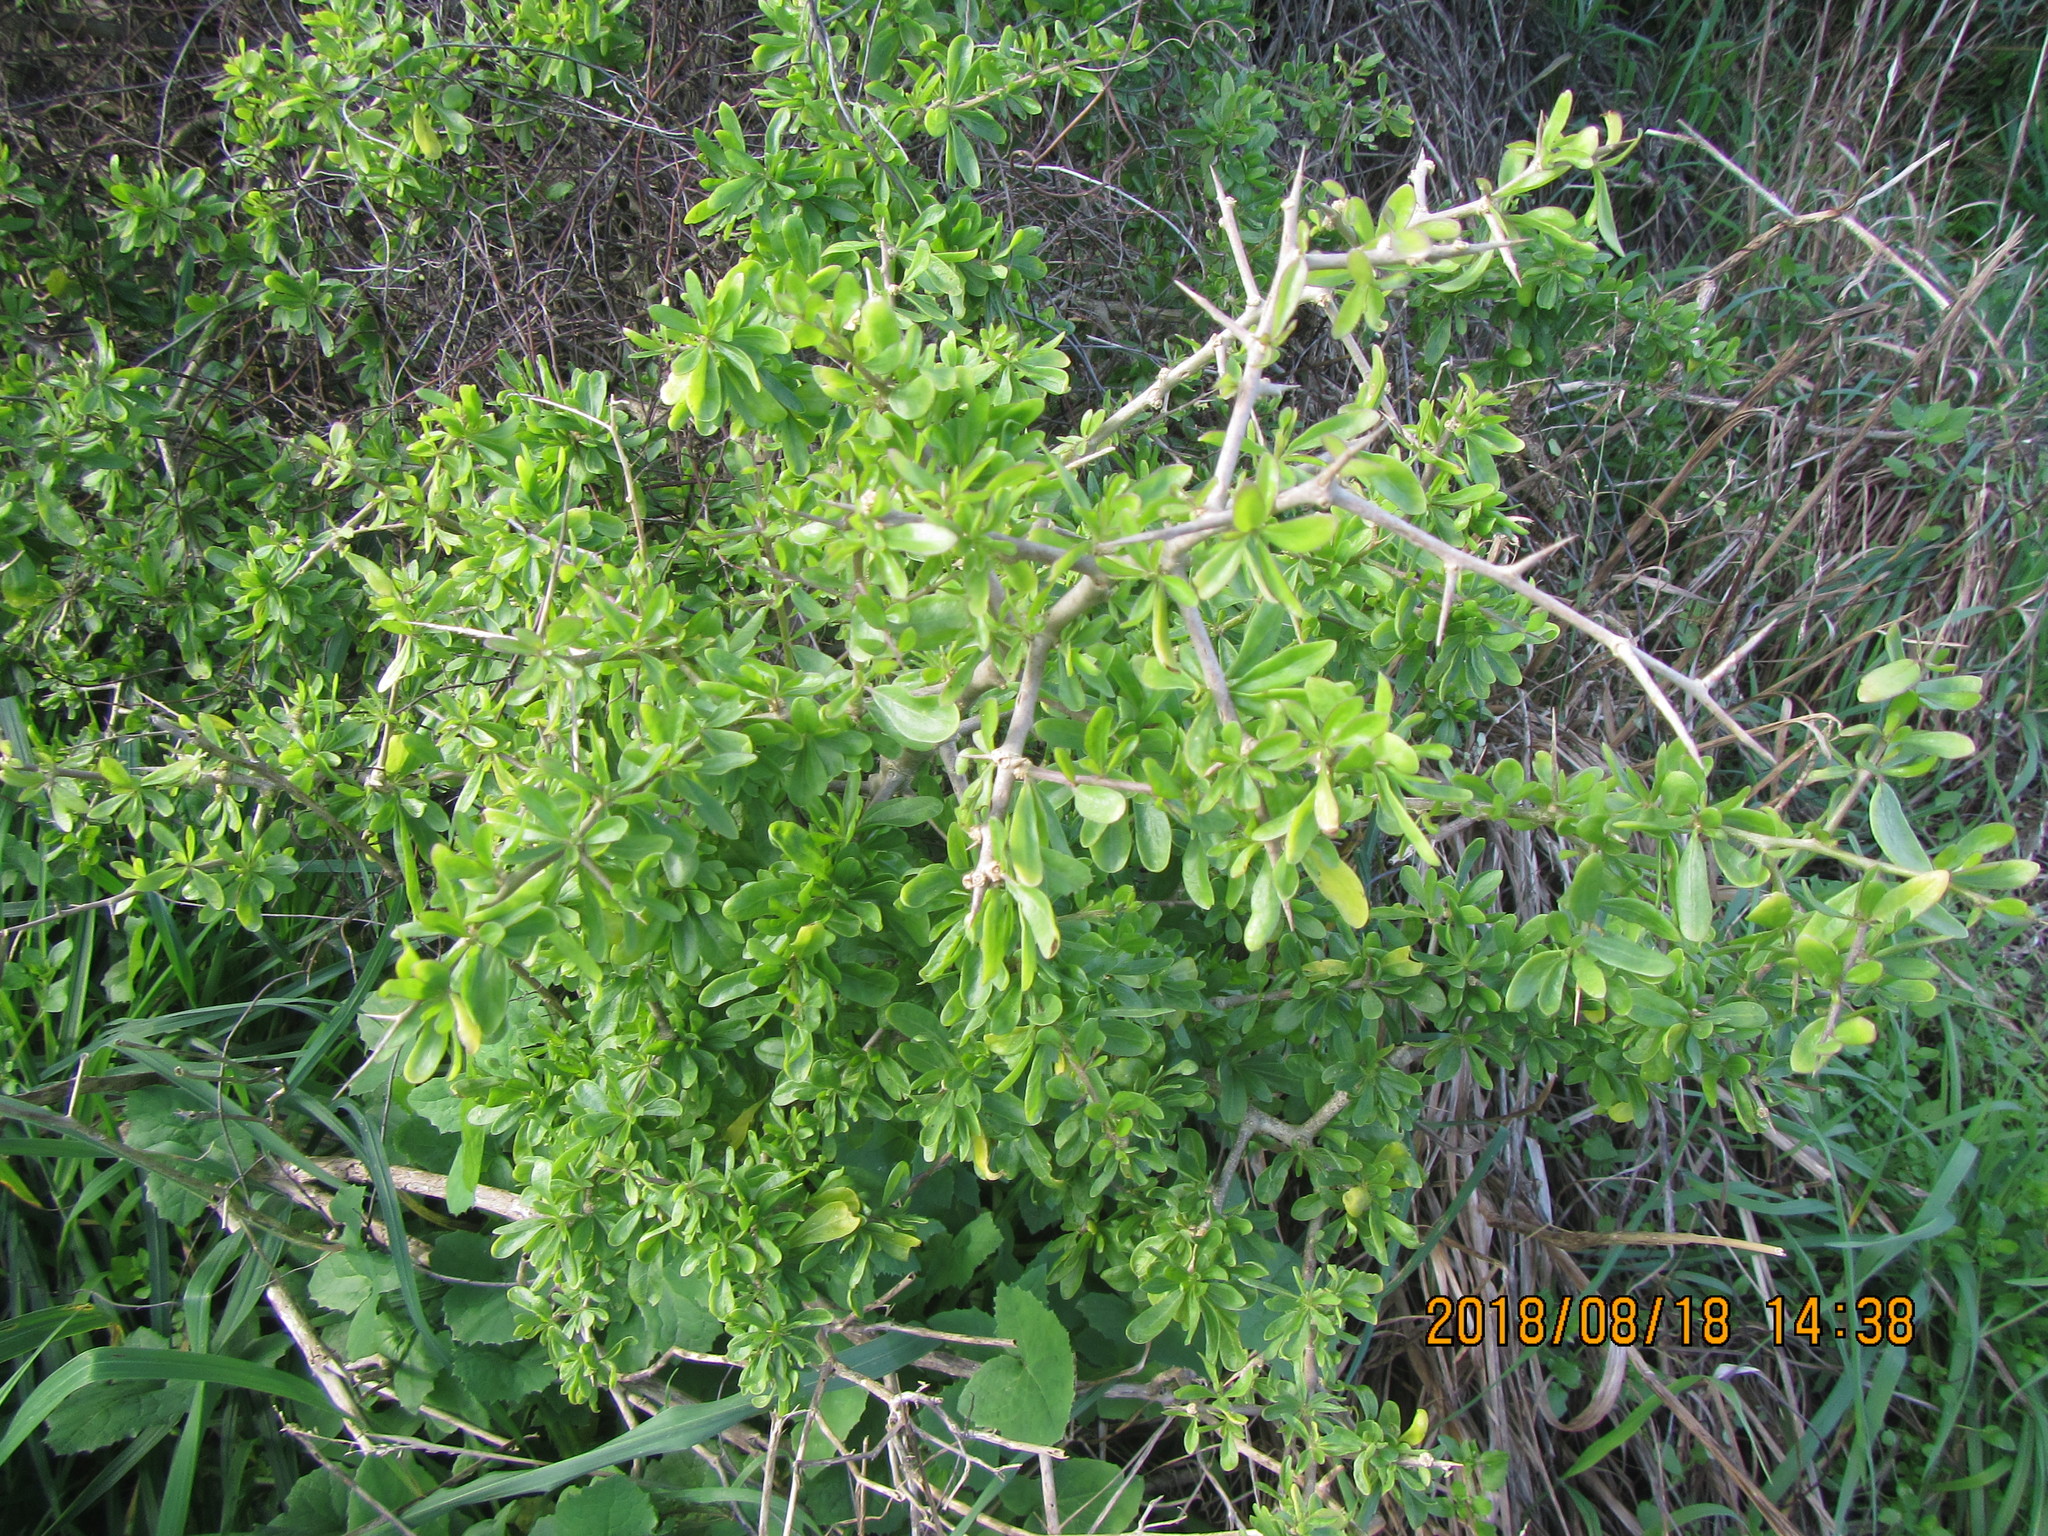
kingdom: Plantae
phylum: Tracheophyta
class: Magnoliopsida
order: Solanales
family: Solanaceae
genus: Lycium
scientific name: Lycium ferocissimum
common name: African boxthorn
